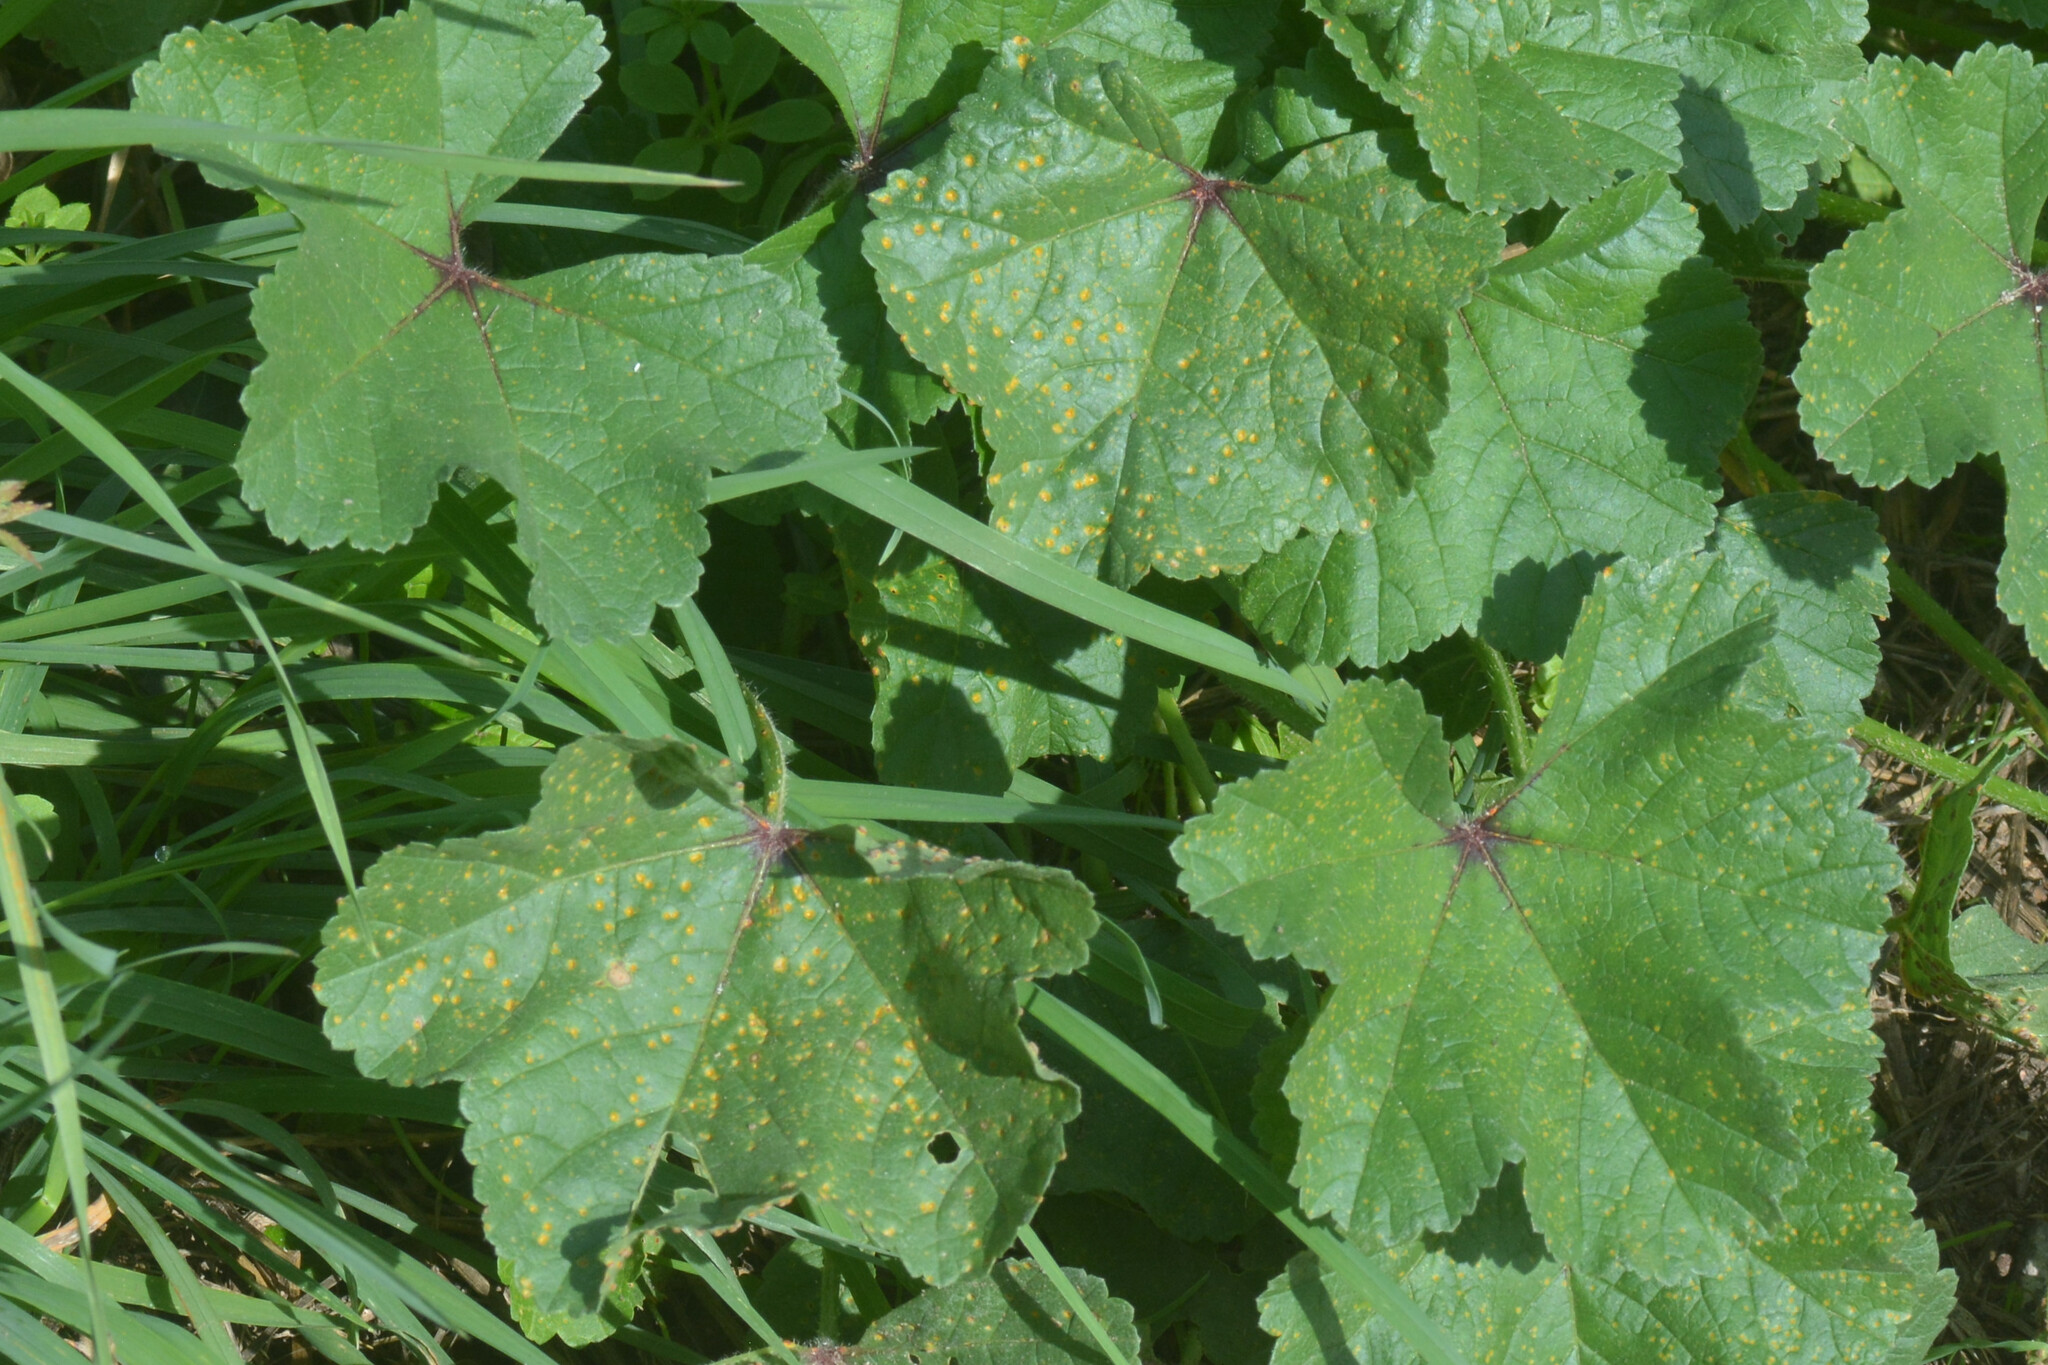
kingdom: Fungi
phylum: Basidiomycota
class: Pucciniomycetes
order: Pucciniales
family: Pucciniaceae
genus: Puccinia
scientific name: Puccinia malvacearum
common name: Hollyhock rust
